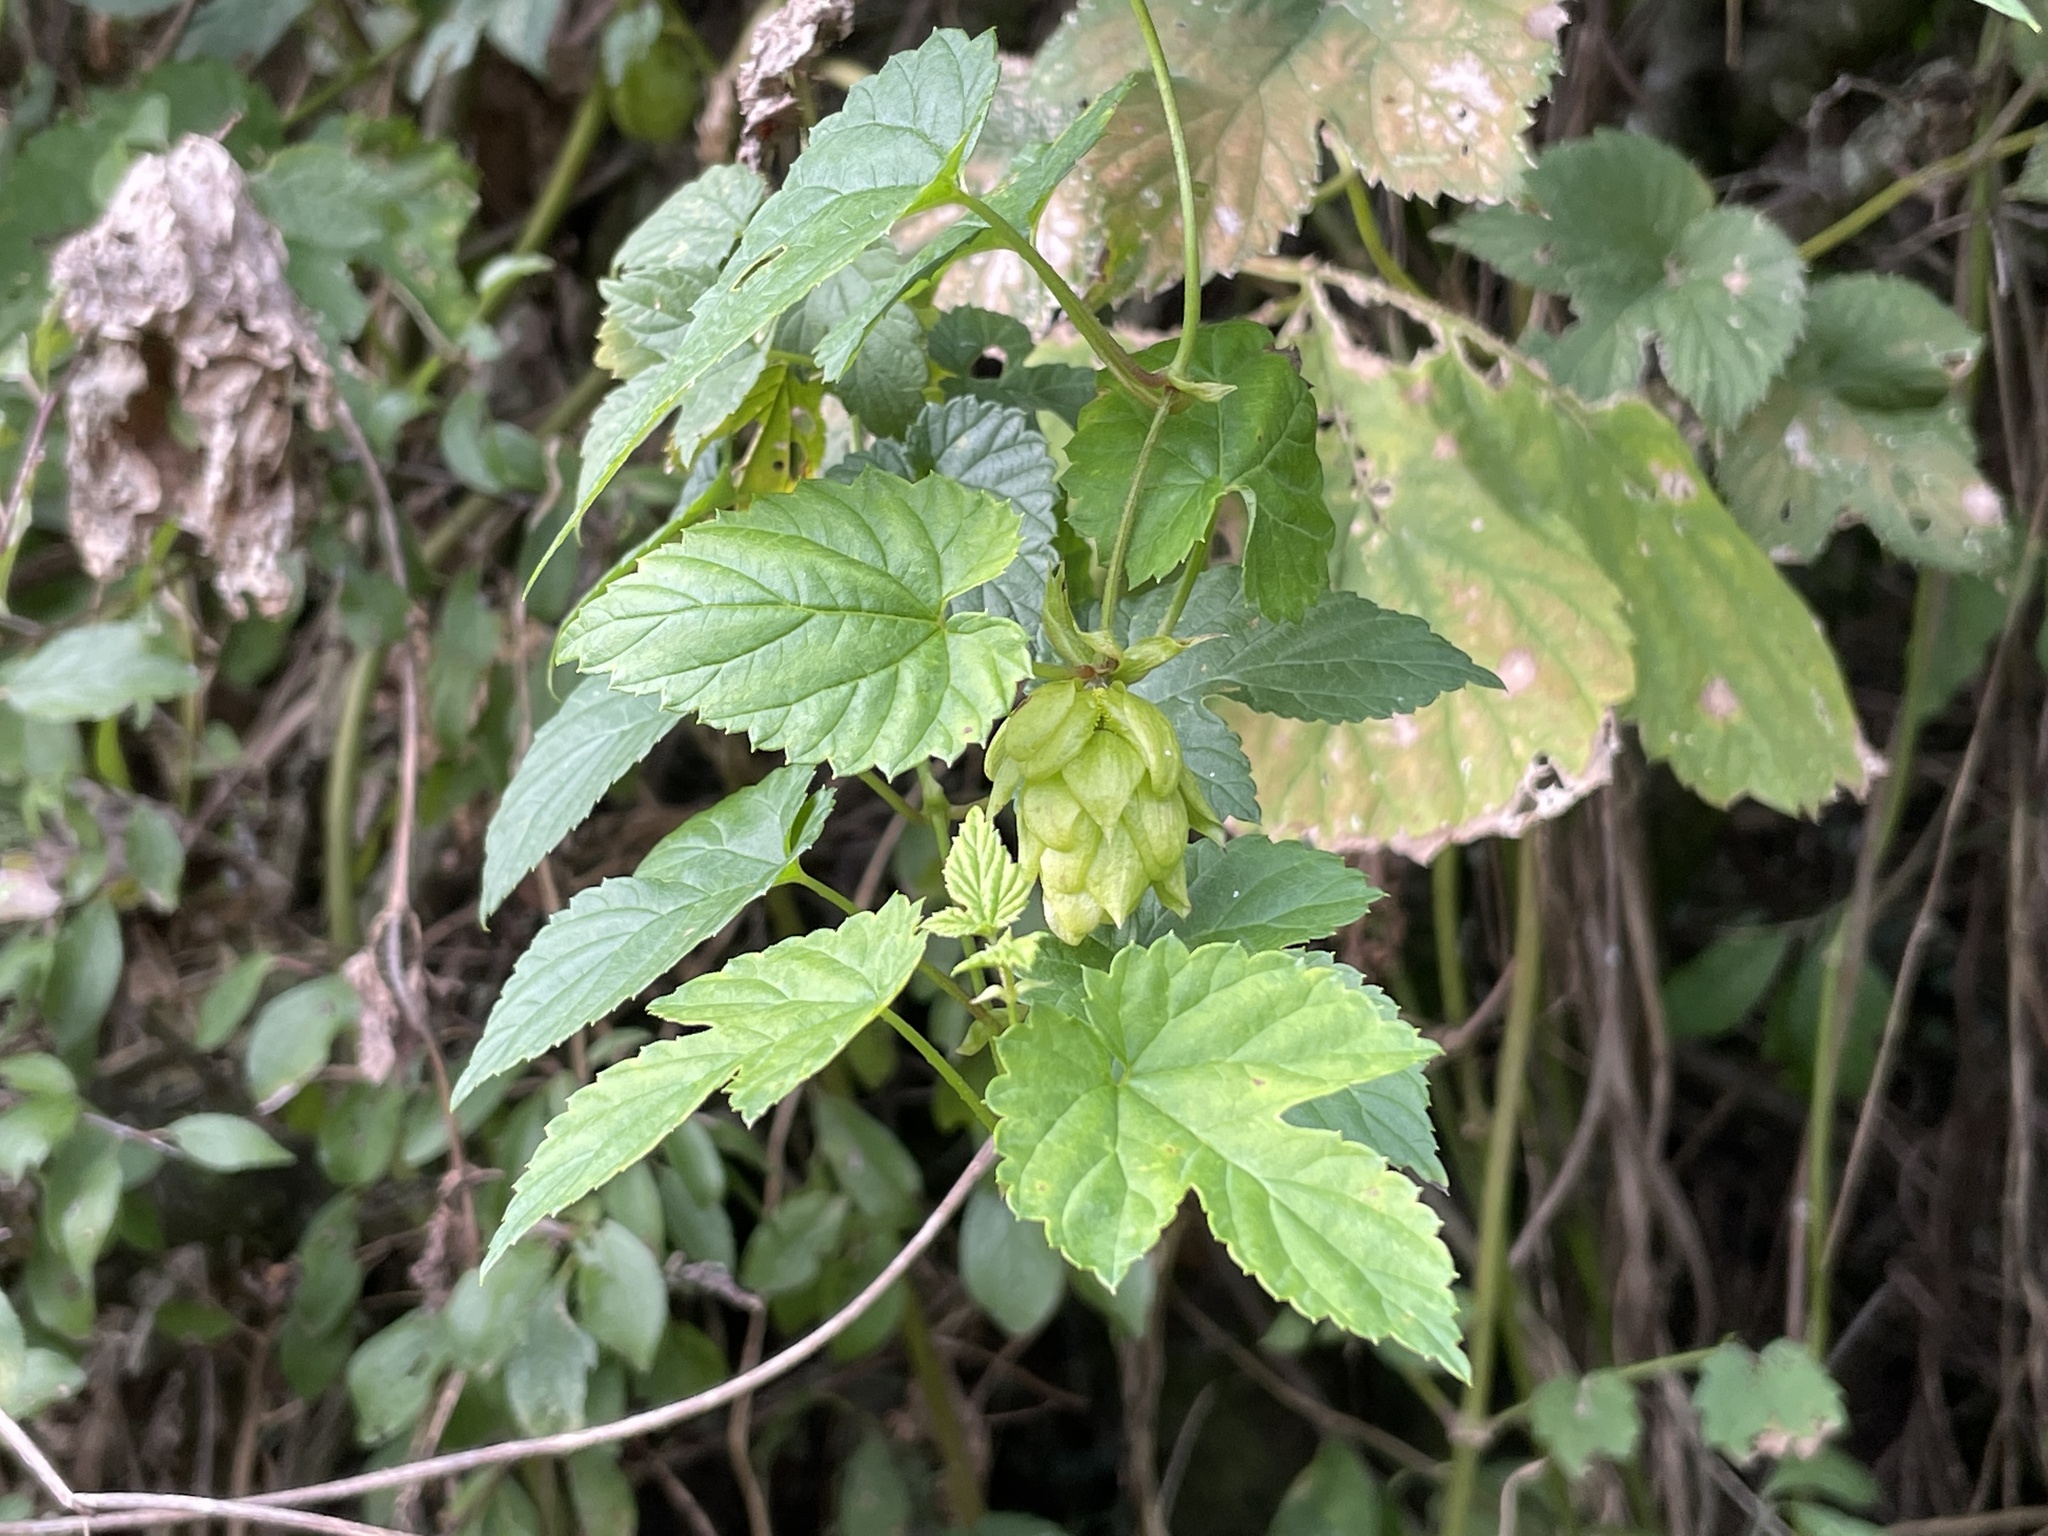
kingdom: Plantae
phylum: Tracheophyta
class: Magnoliopsida
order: Rosales
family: Cannabaceae
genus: Humulus
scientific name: Humulus lupulus
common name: Hop
